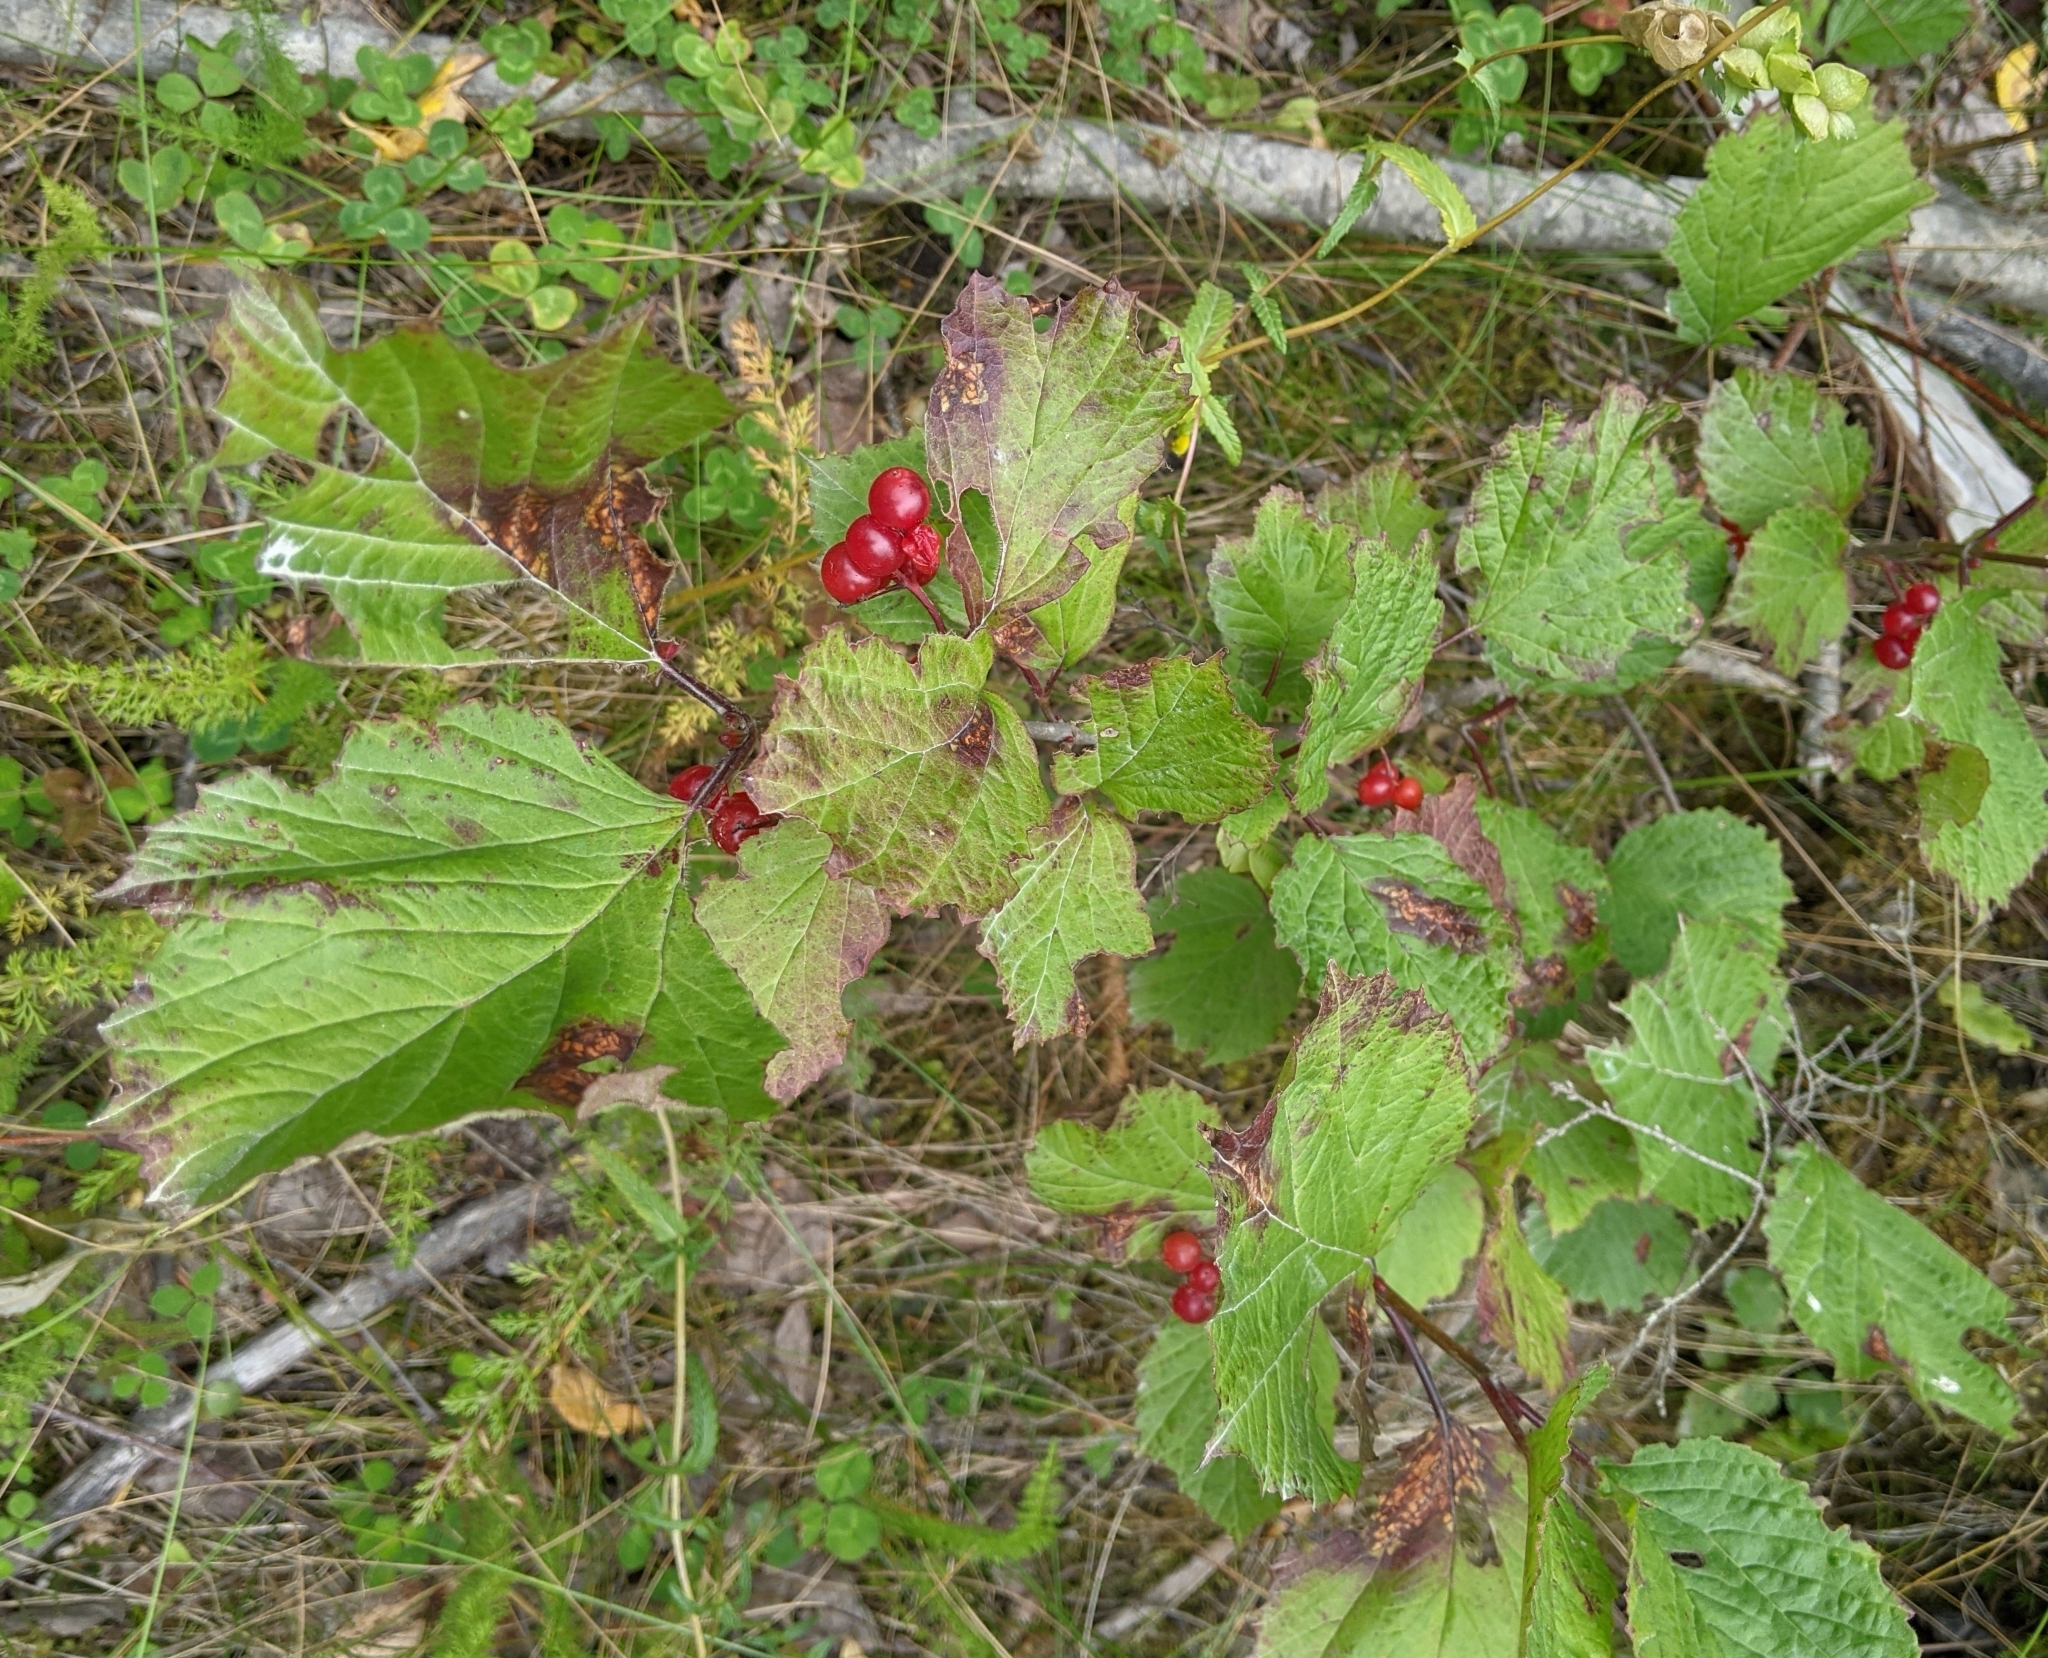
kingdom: Plantae
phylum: Tracheophyta
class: Magnoliopsida
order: Dipsacales
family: Viburnaceae
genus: Viburnum
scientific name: Viburnum edule
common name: Mooseberry
